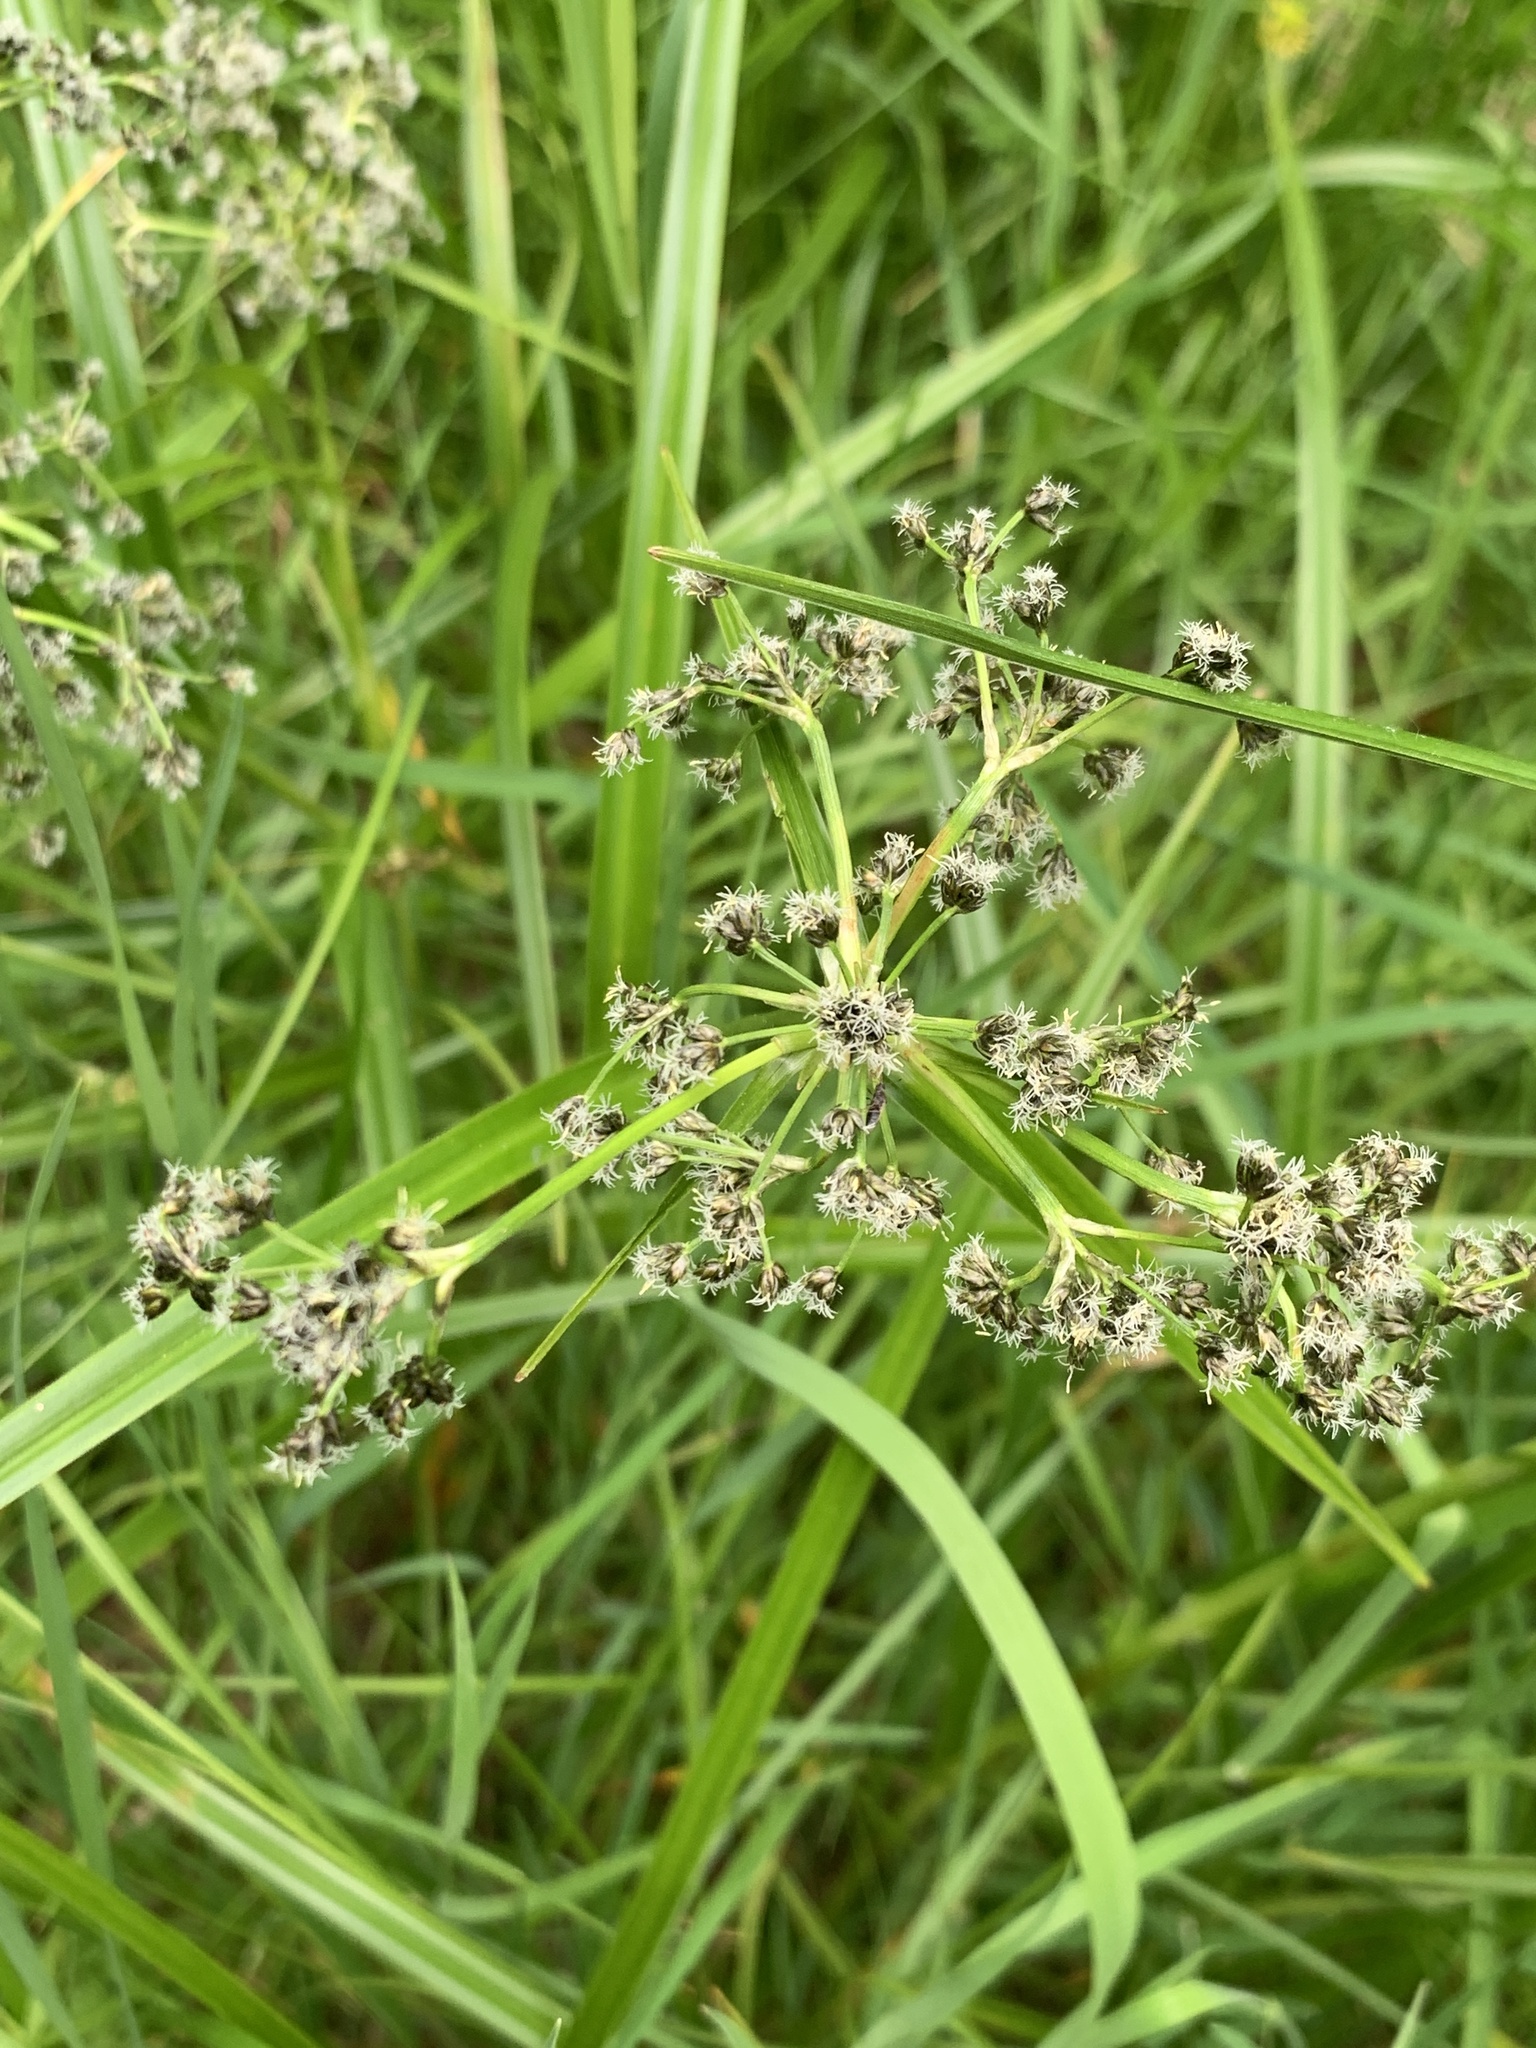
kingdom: Plantae
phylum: Tracheophyta
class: Liliopsida
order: Poales
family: Cyperaceae
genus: Scirpus
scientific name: Scirpus sylvaticus
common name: Wood club-rush
